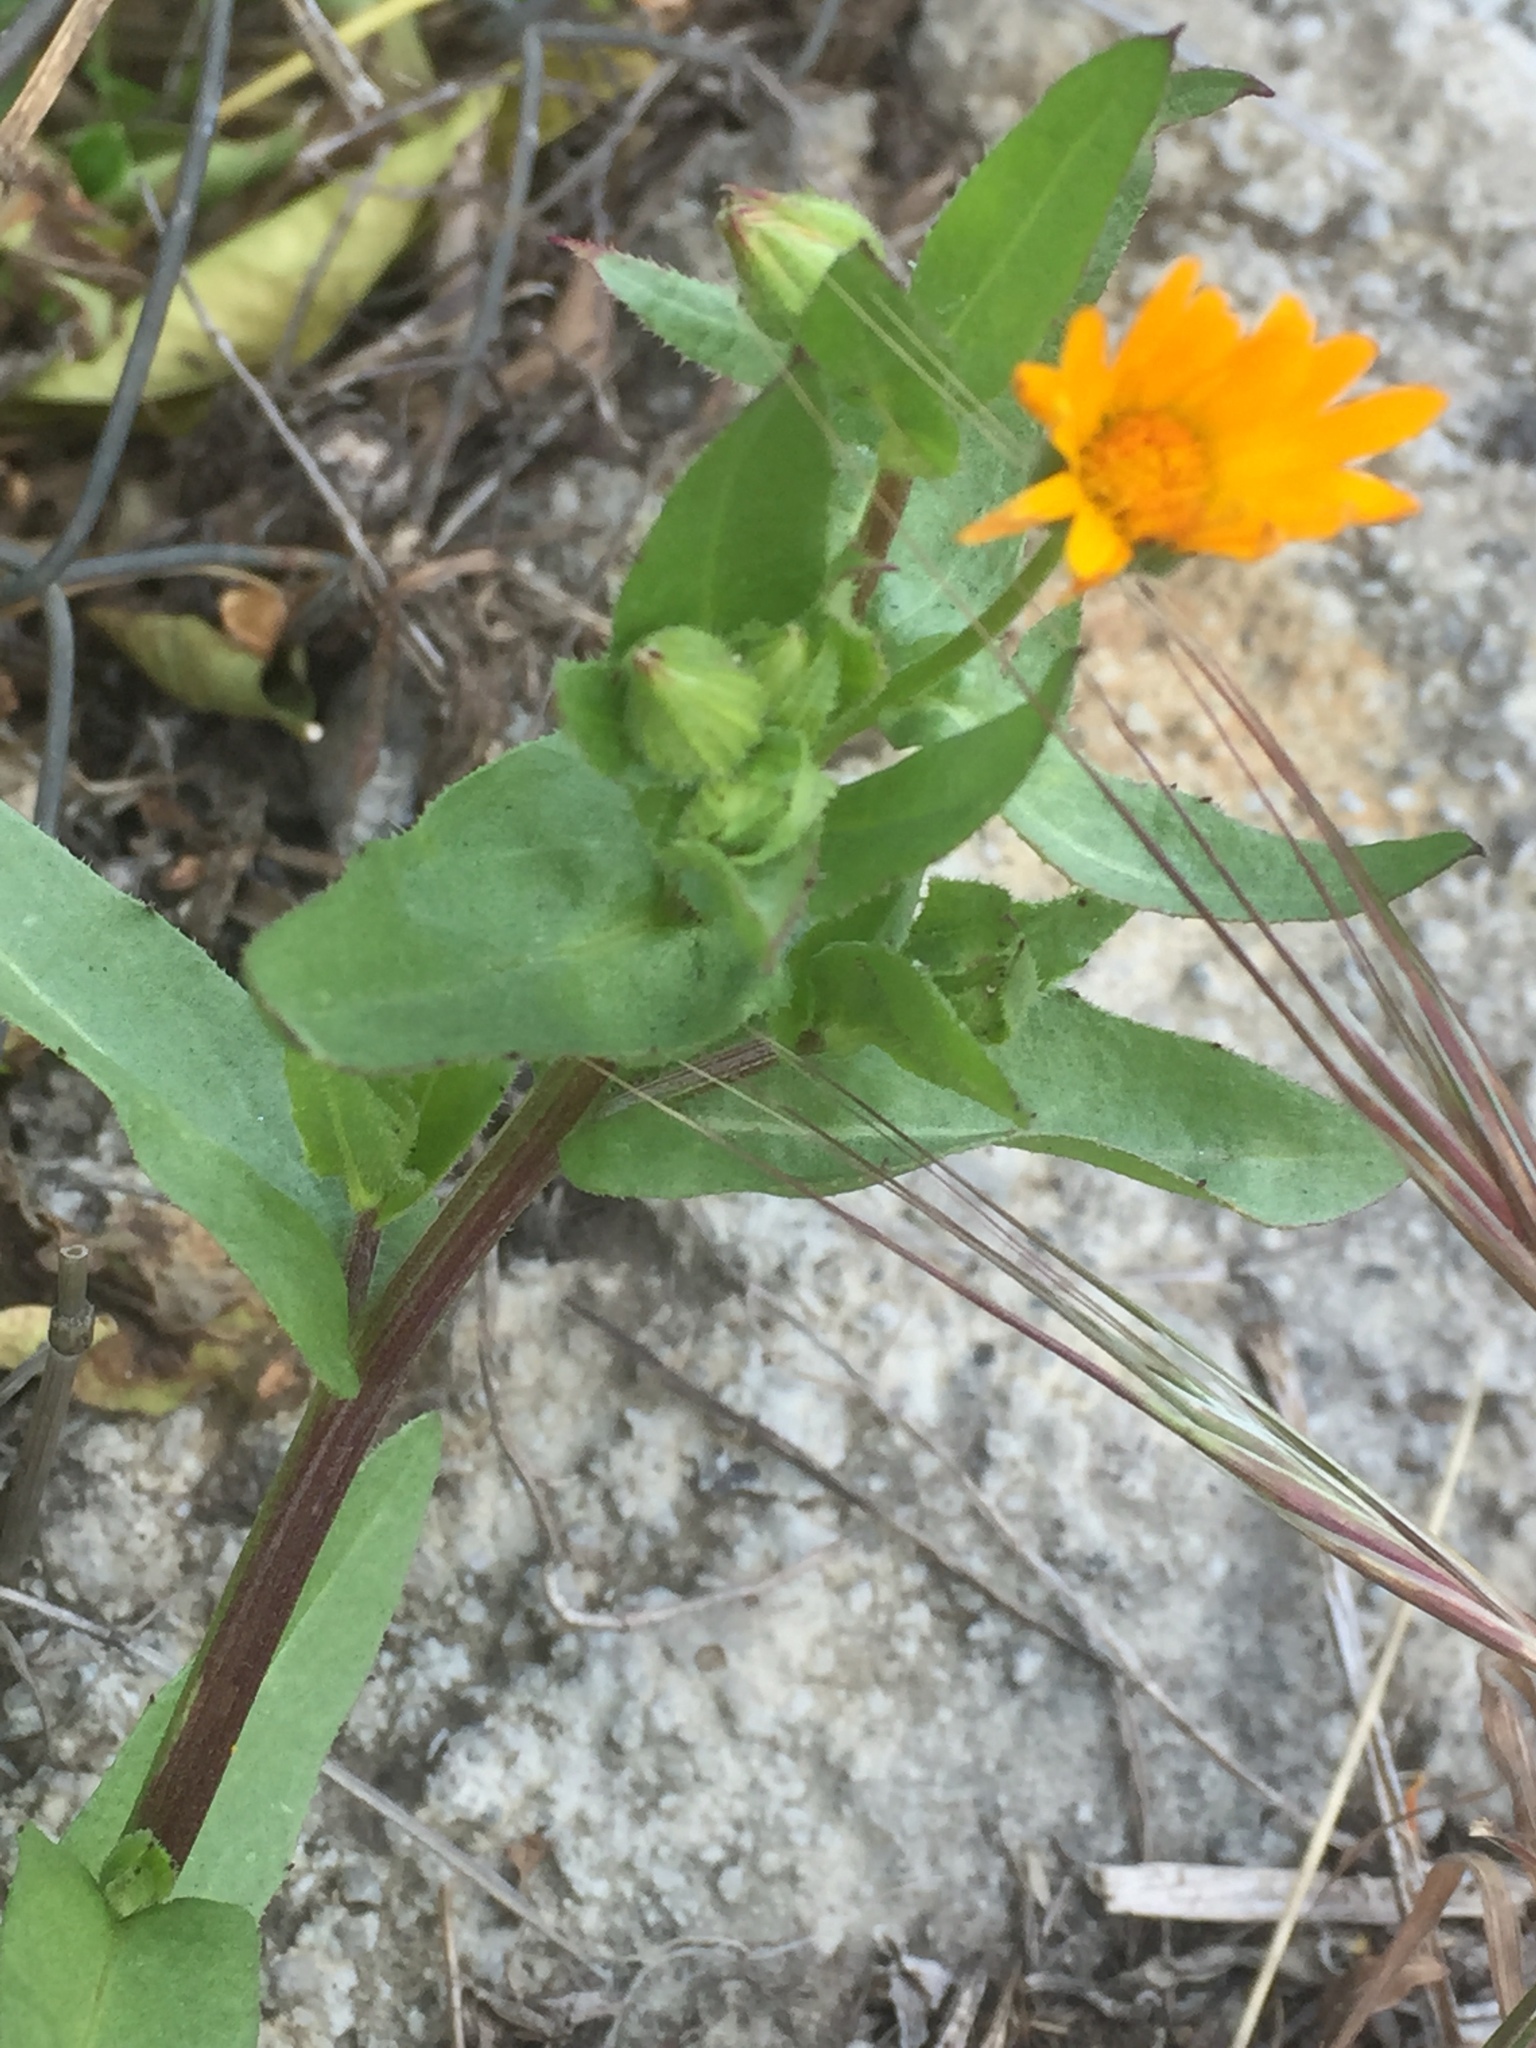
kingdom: Plantae
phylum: Tracheophyta
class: Magnoliopsida
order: Asterales
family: Asteraceae
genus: Calendula
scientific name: Calendula arvensis
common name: Field marigold
